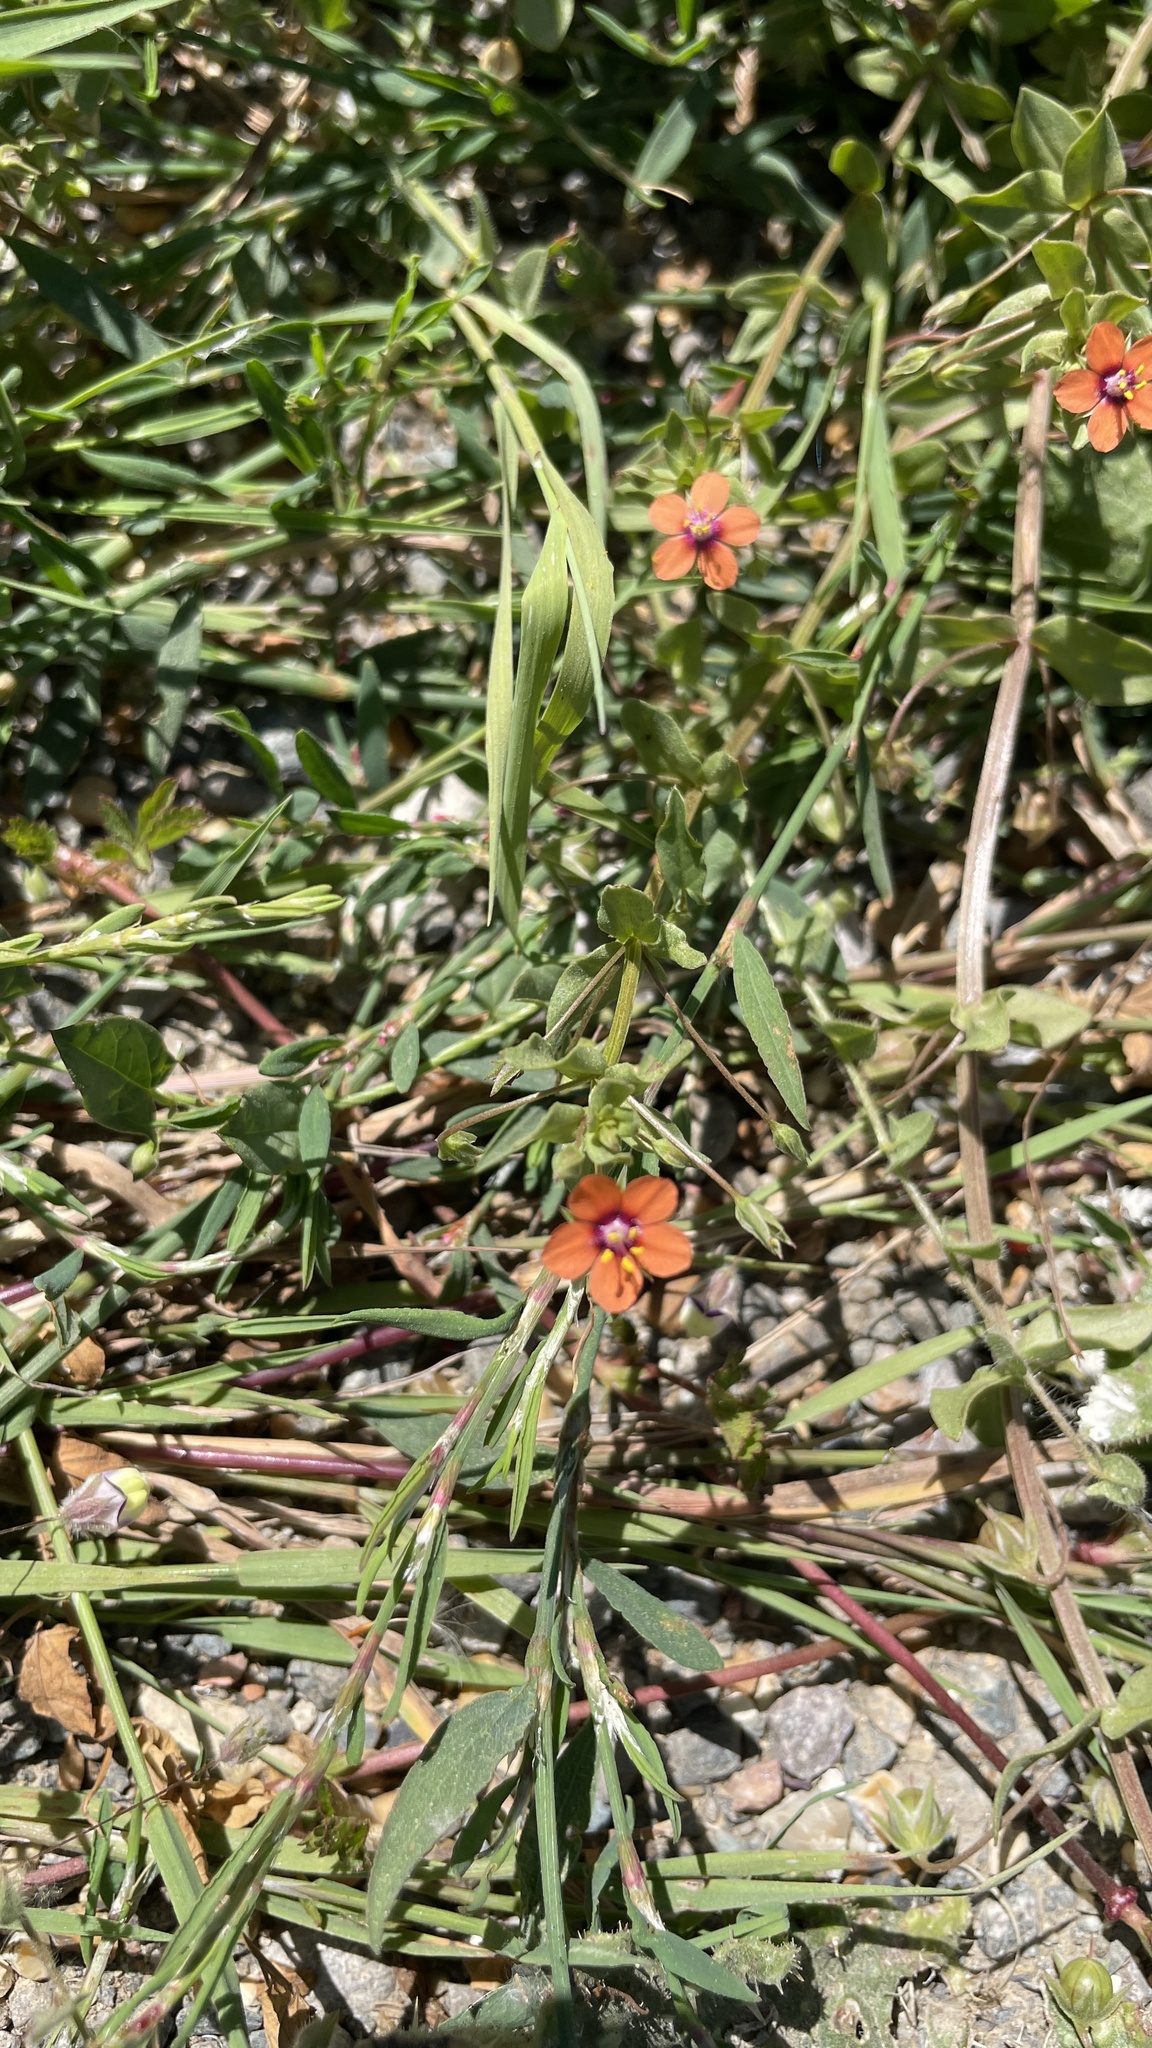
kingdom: Plantae
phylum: Tracheophyta
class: Magnoliopsida
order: Ericales
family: Primulaceae
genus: Lysimachia
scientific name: Lysimachia arvensis
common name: Scarlet pimpernel
